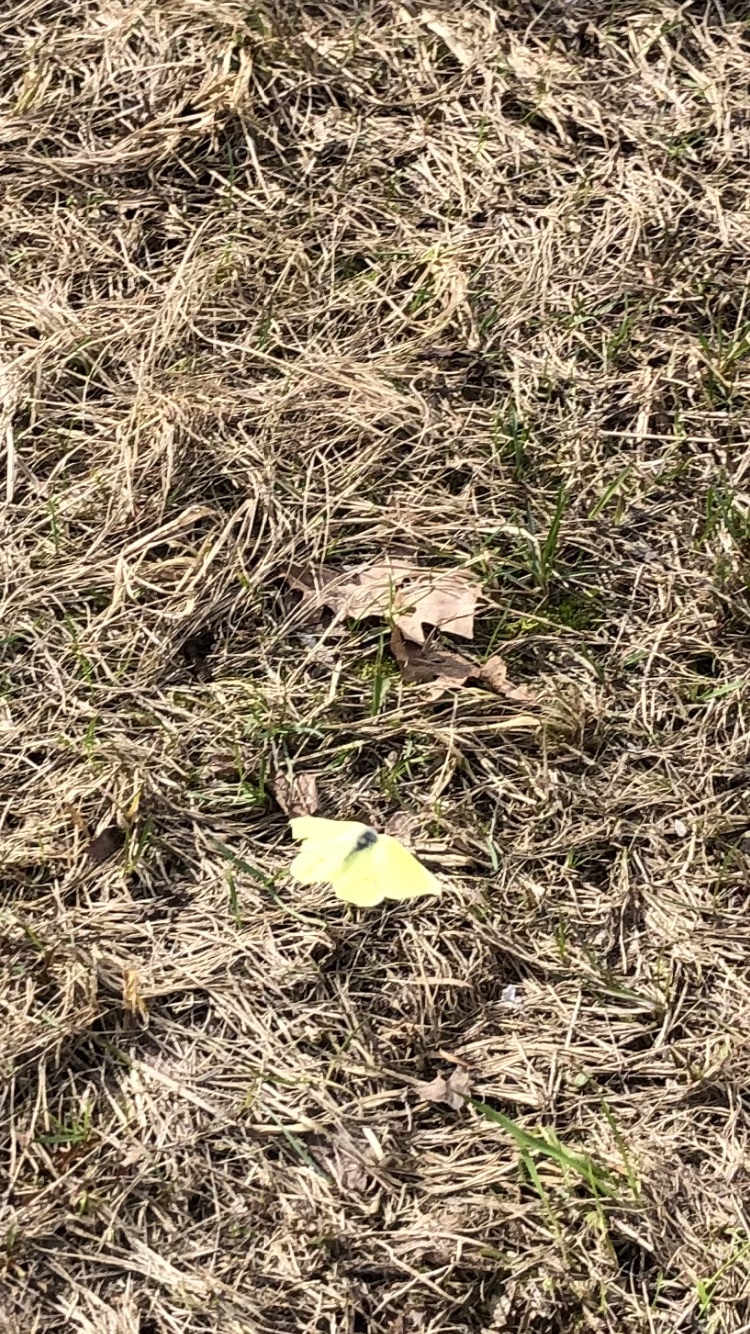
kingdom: Animalia
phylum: Arthropoda
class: Insecta
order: Lepidoptera
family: Pieridae
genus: Gonepteryx
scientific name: Gonepteryx rhamni
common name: Brimstone
